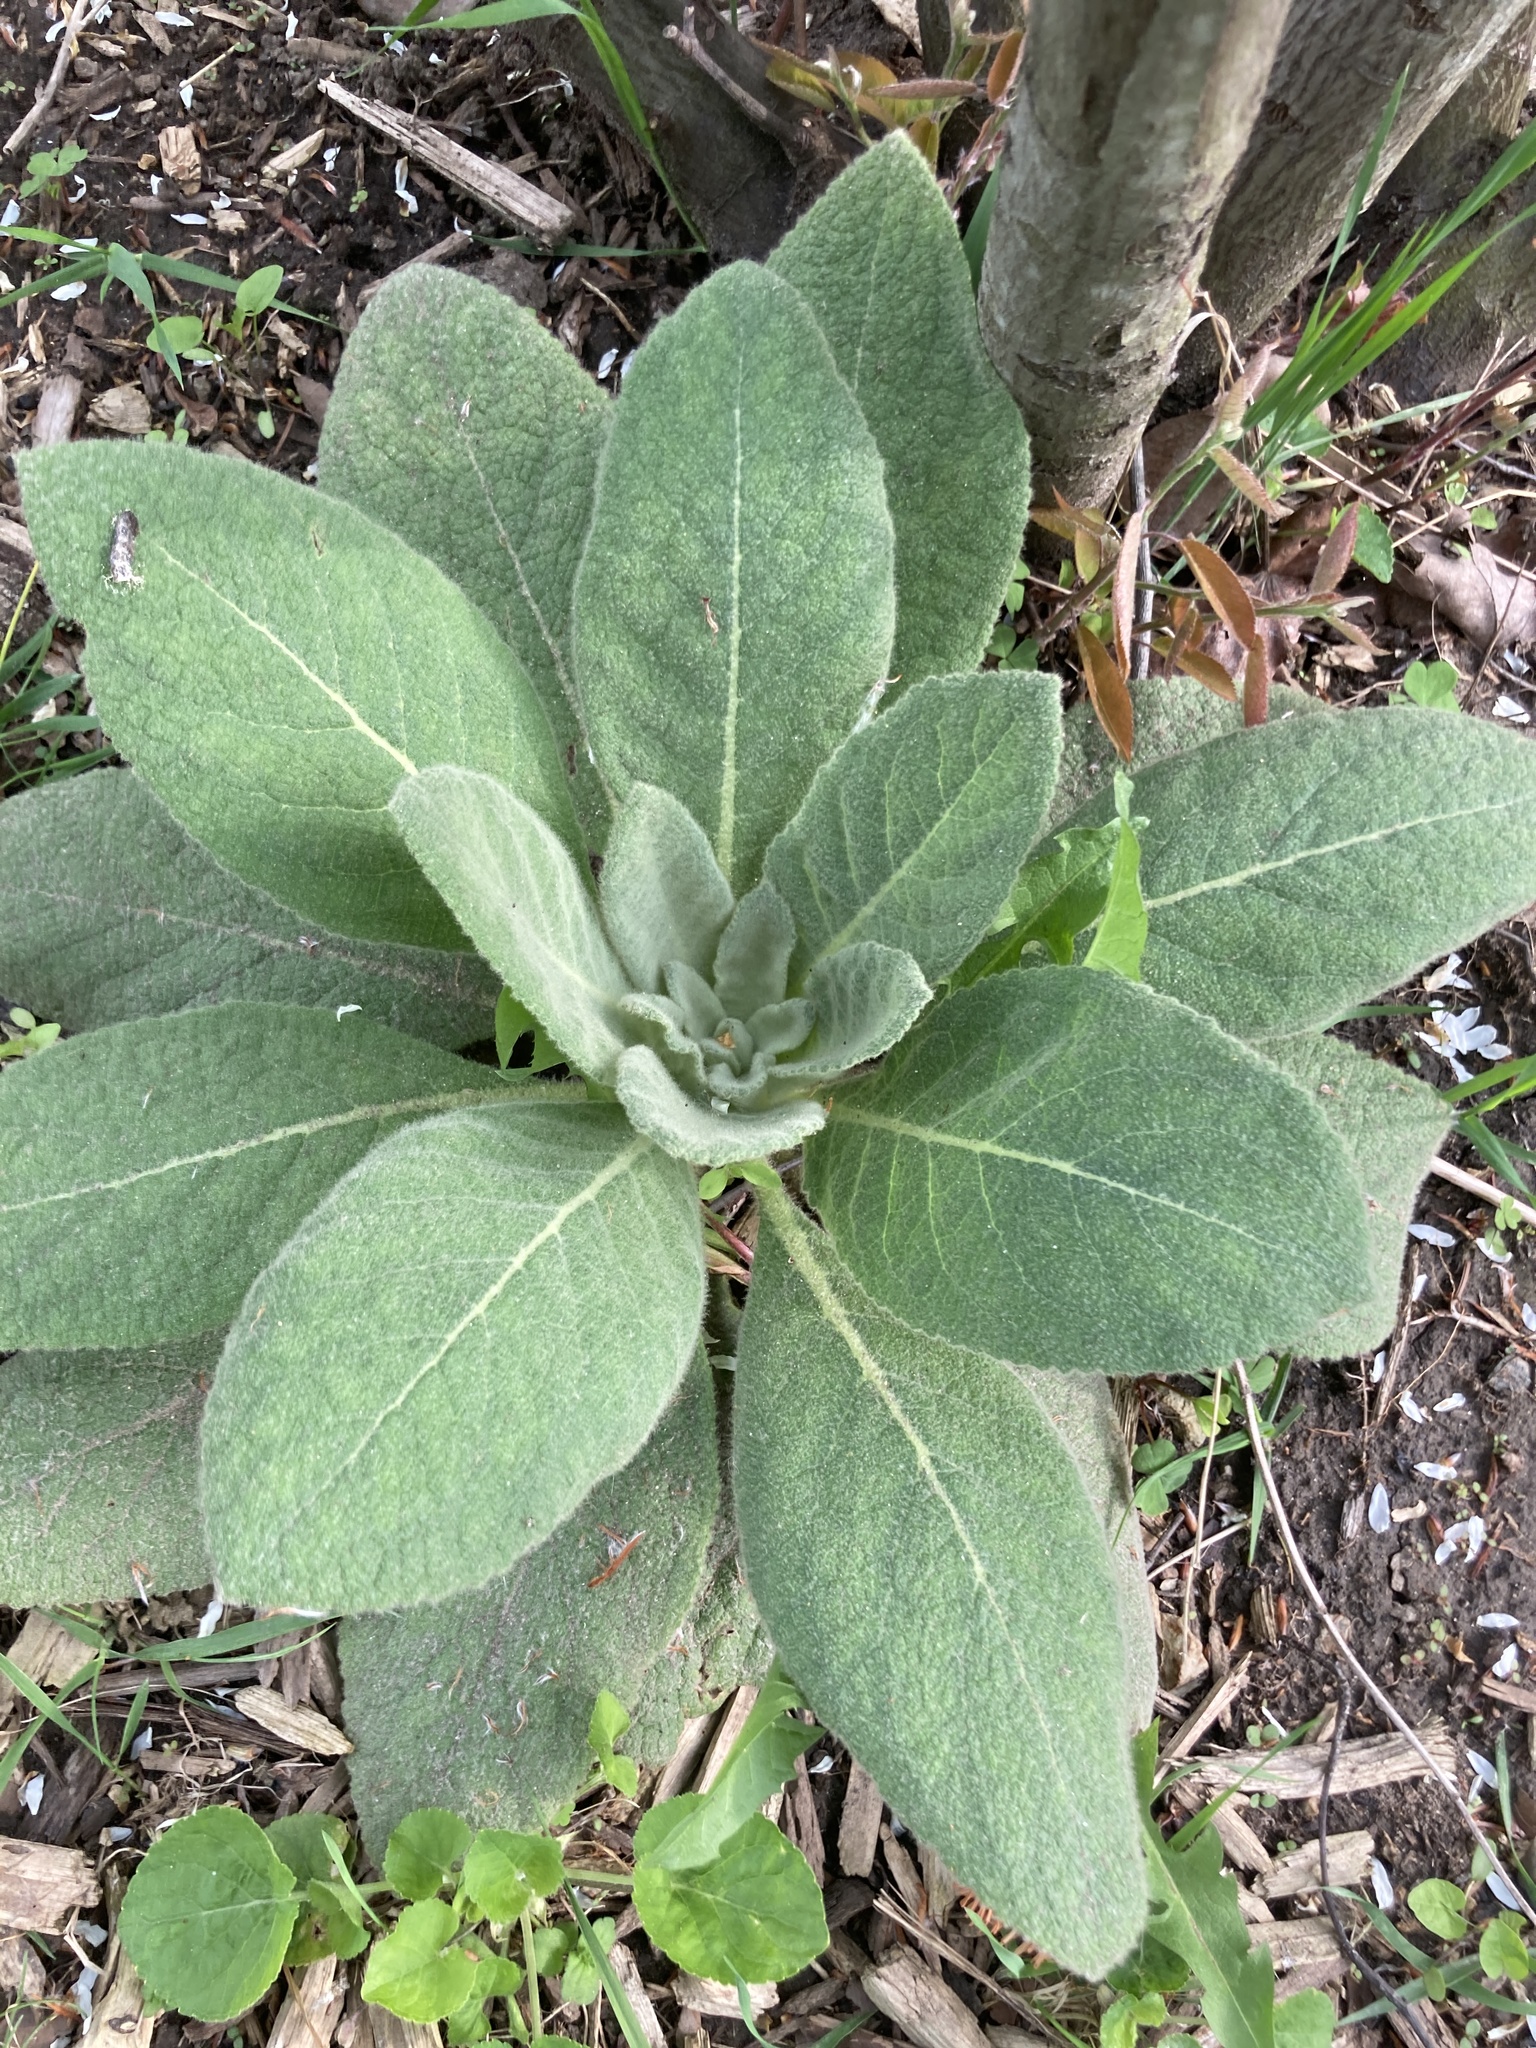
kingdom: Plantae
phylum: Tracheophyta
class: Magnoliopsida
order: Lamiales
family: Scrophulariaceae
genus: Verbascum
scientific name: Verbascum thapsus
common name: Common mullein
